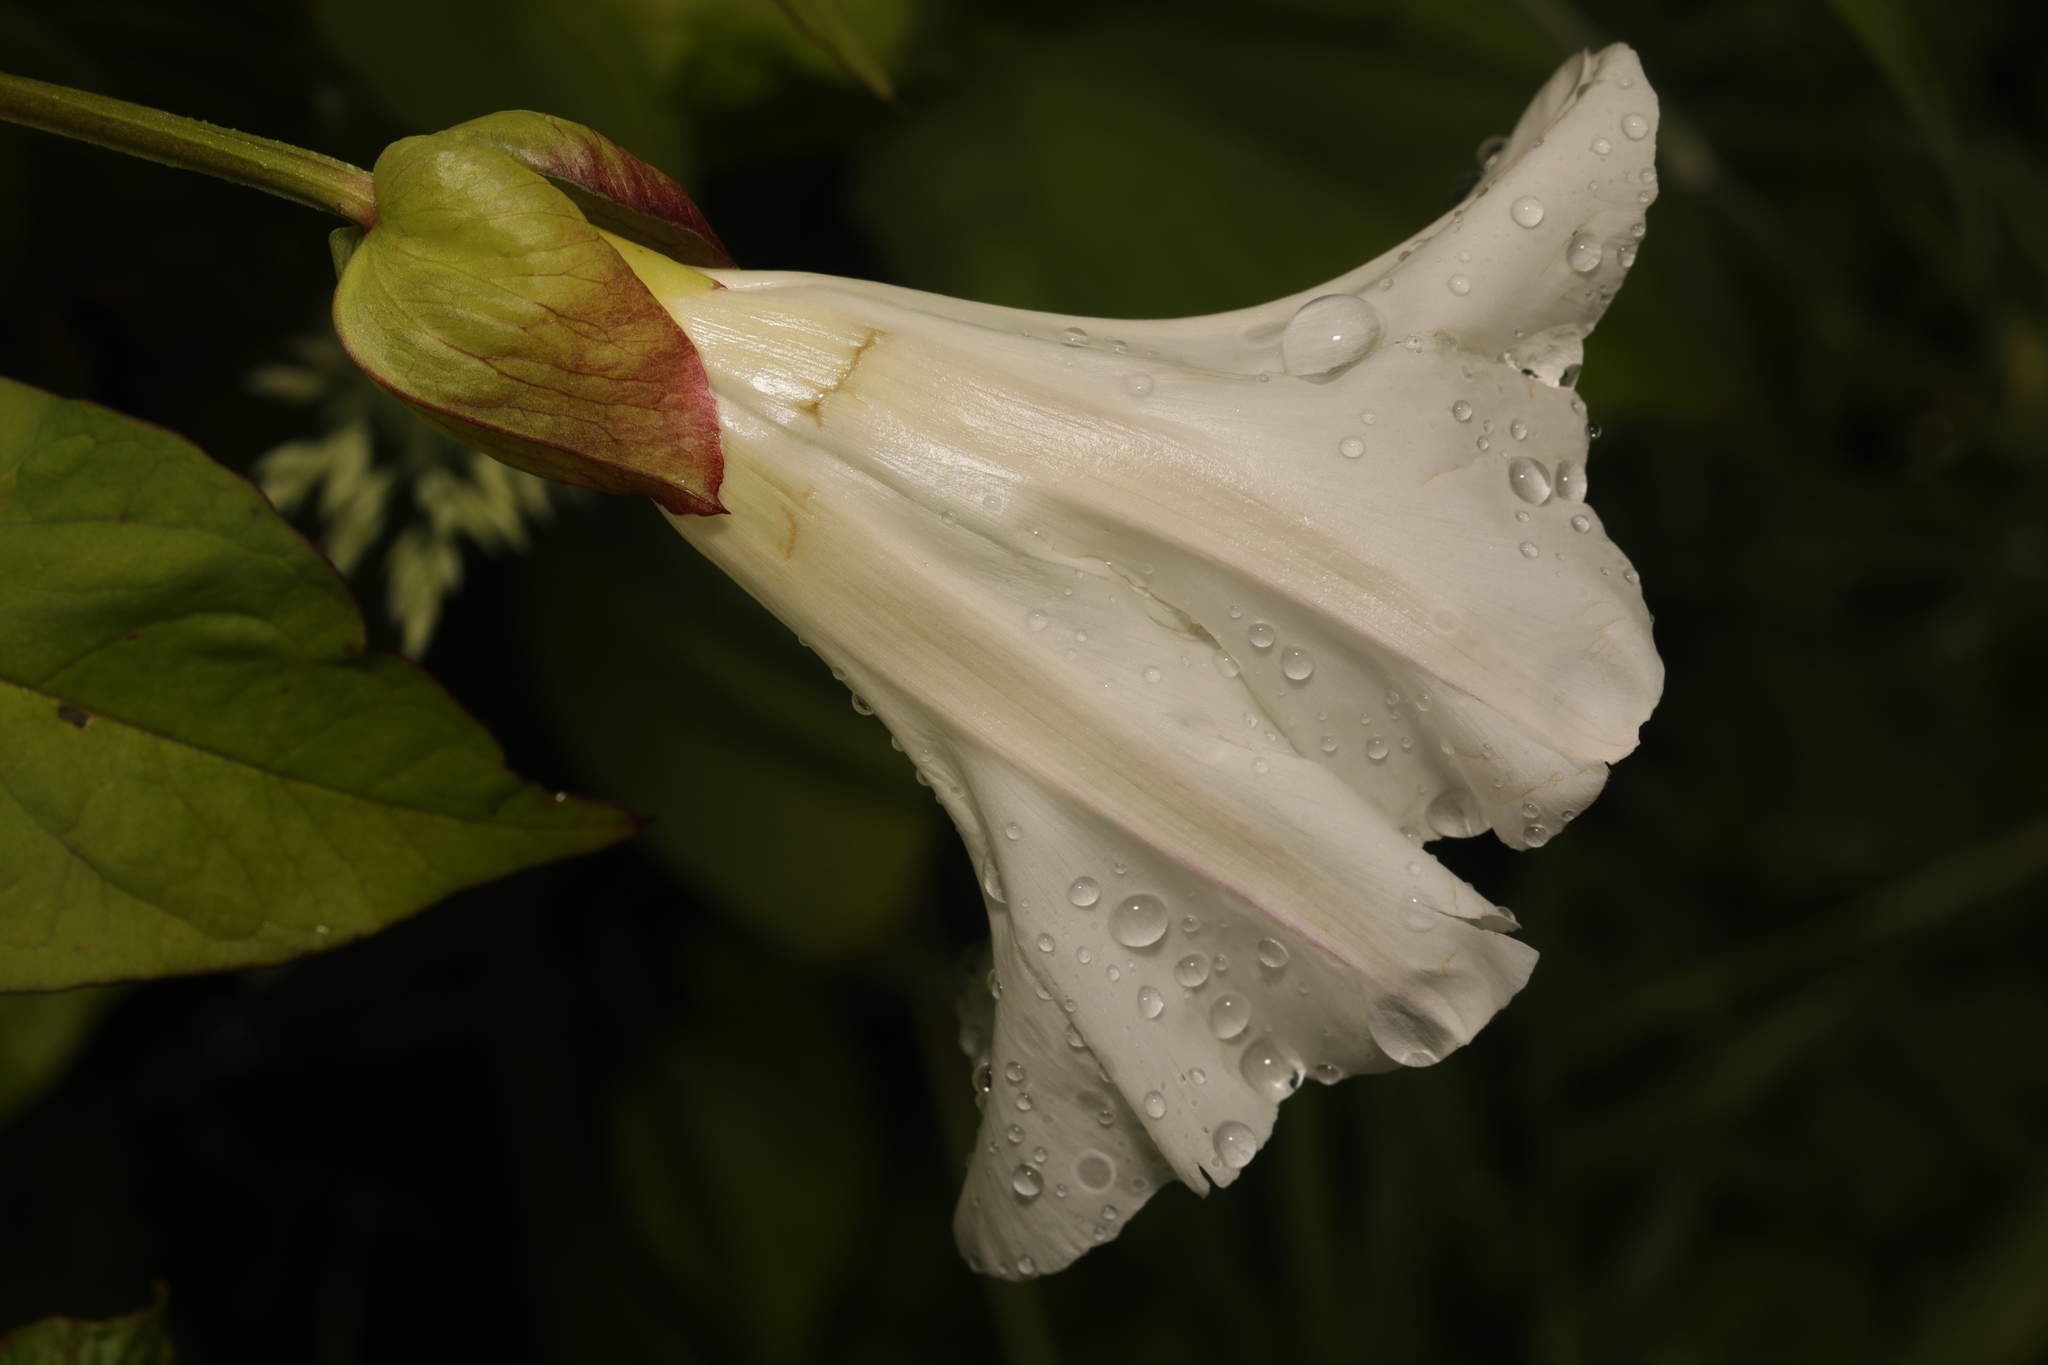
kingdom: Plantae
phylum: Tracheophyta
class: Magnoliopsida
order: Solanales
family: Convolvulaceae
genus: Calystegia
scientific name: Calystegia sepium
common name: Hedge bindweed
